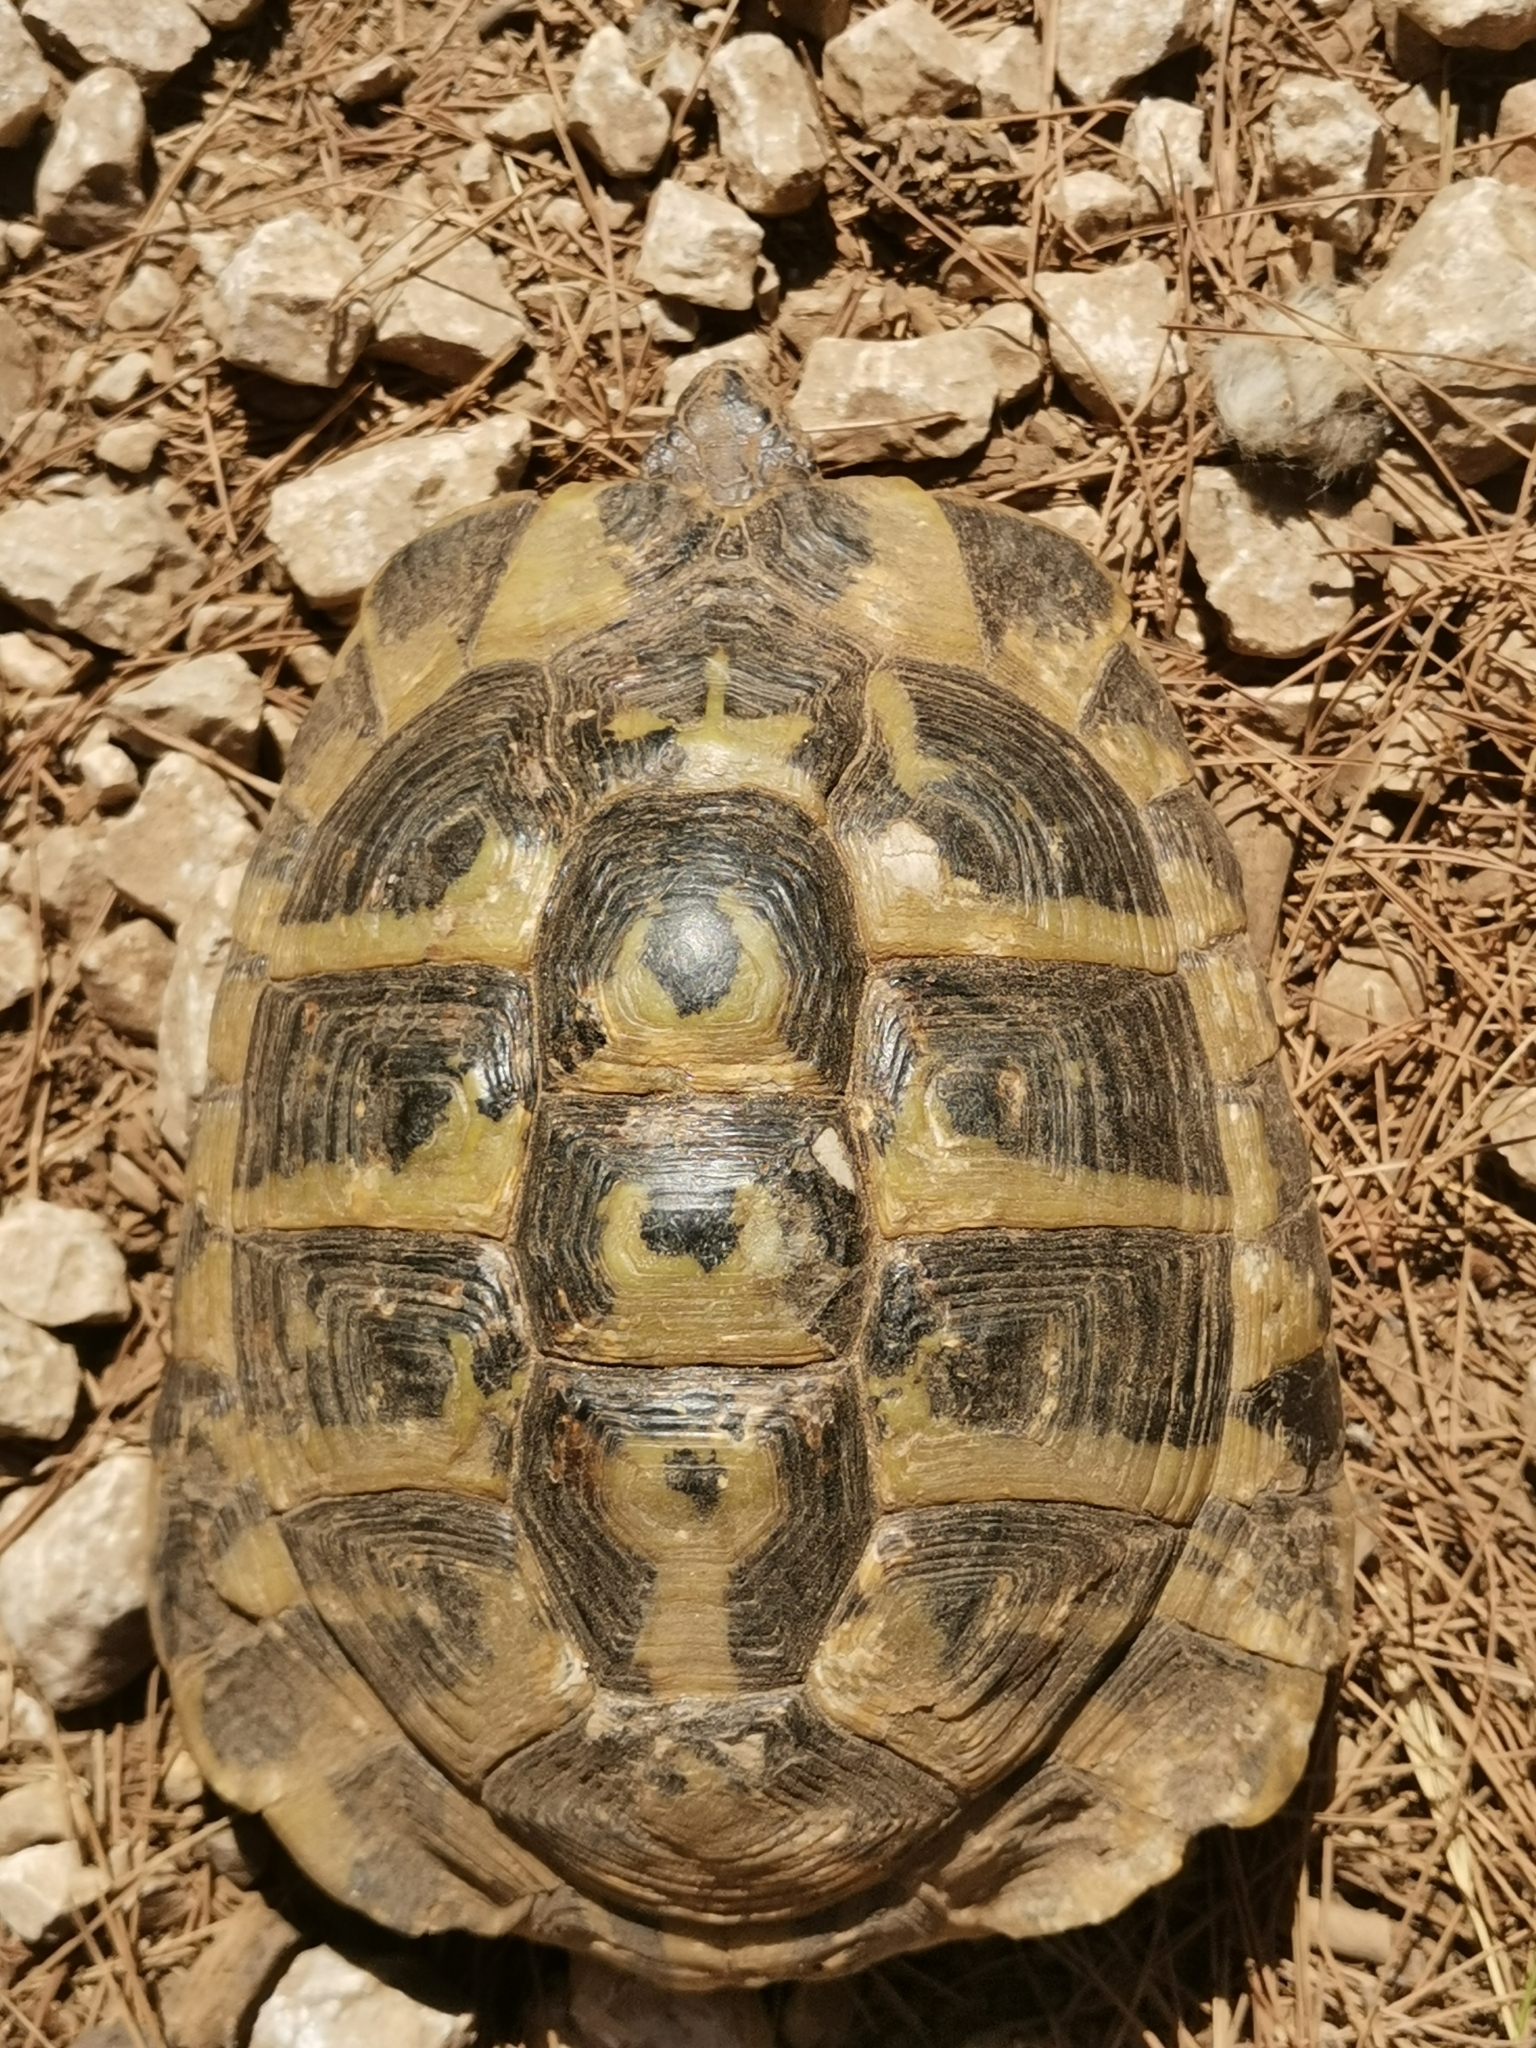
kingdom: Animalia
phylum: Chordata
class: Testudines
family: Testudinidae
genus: Testudo
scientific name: Testudo hermanni
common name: Hermann's tortoise
